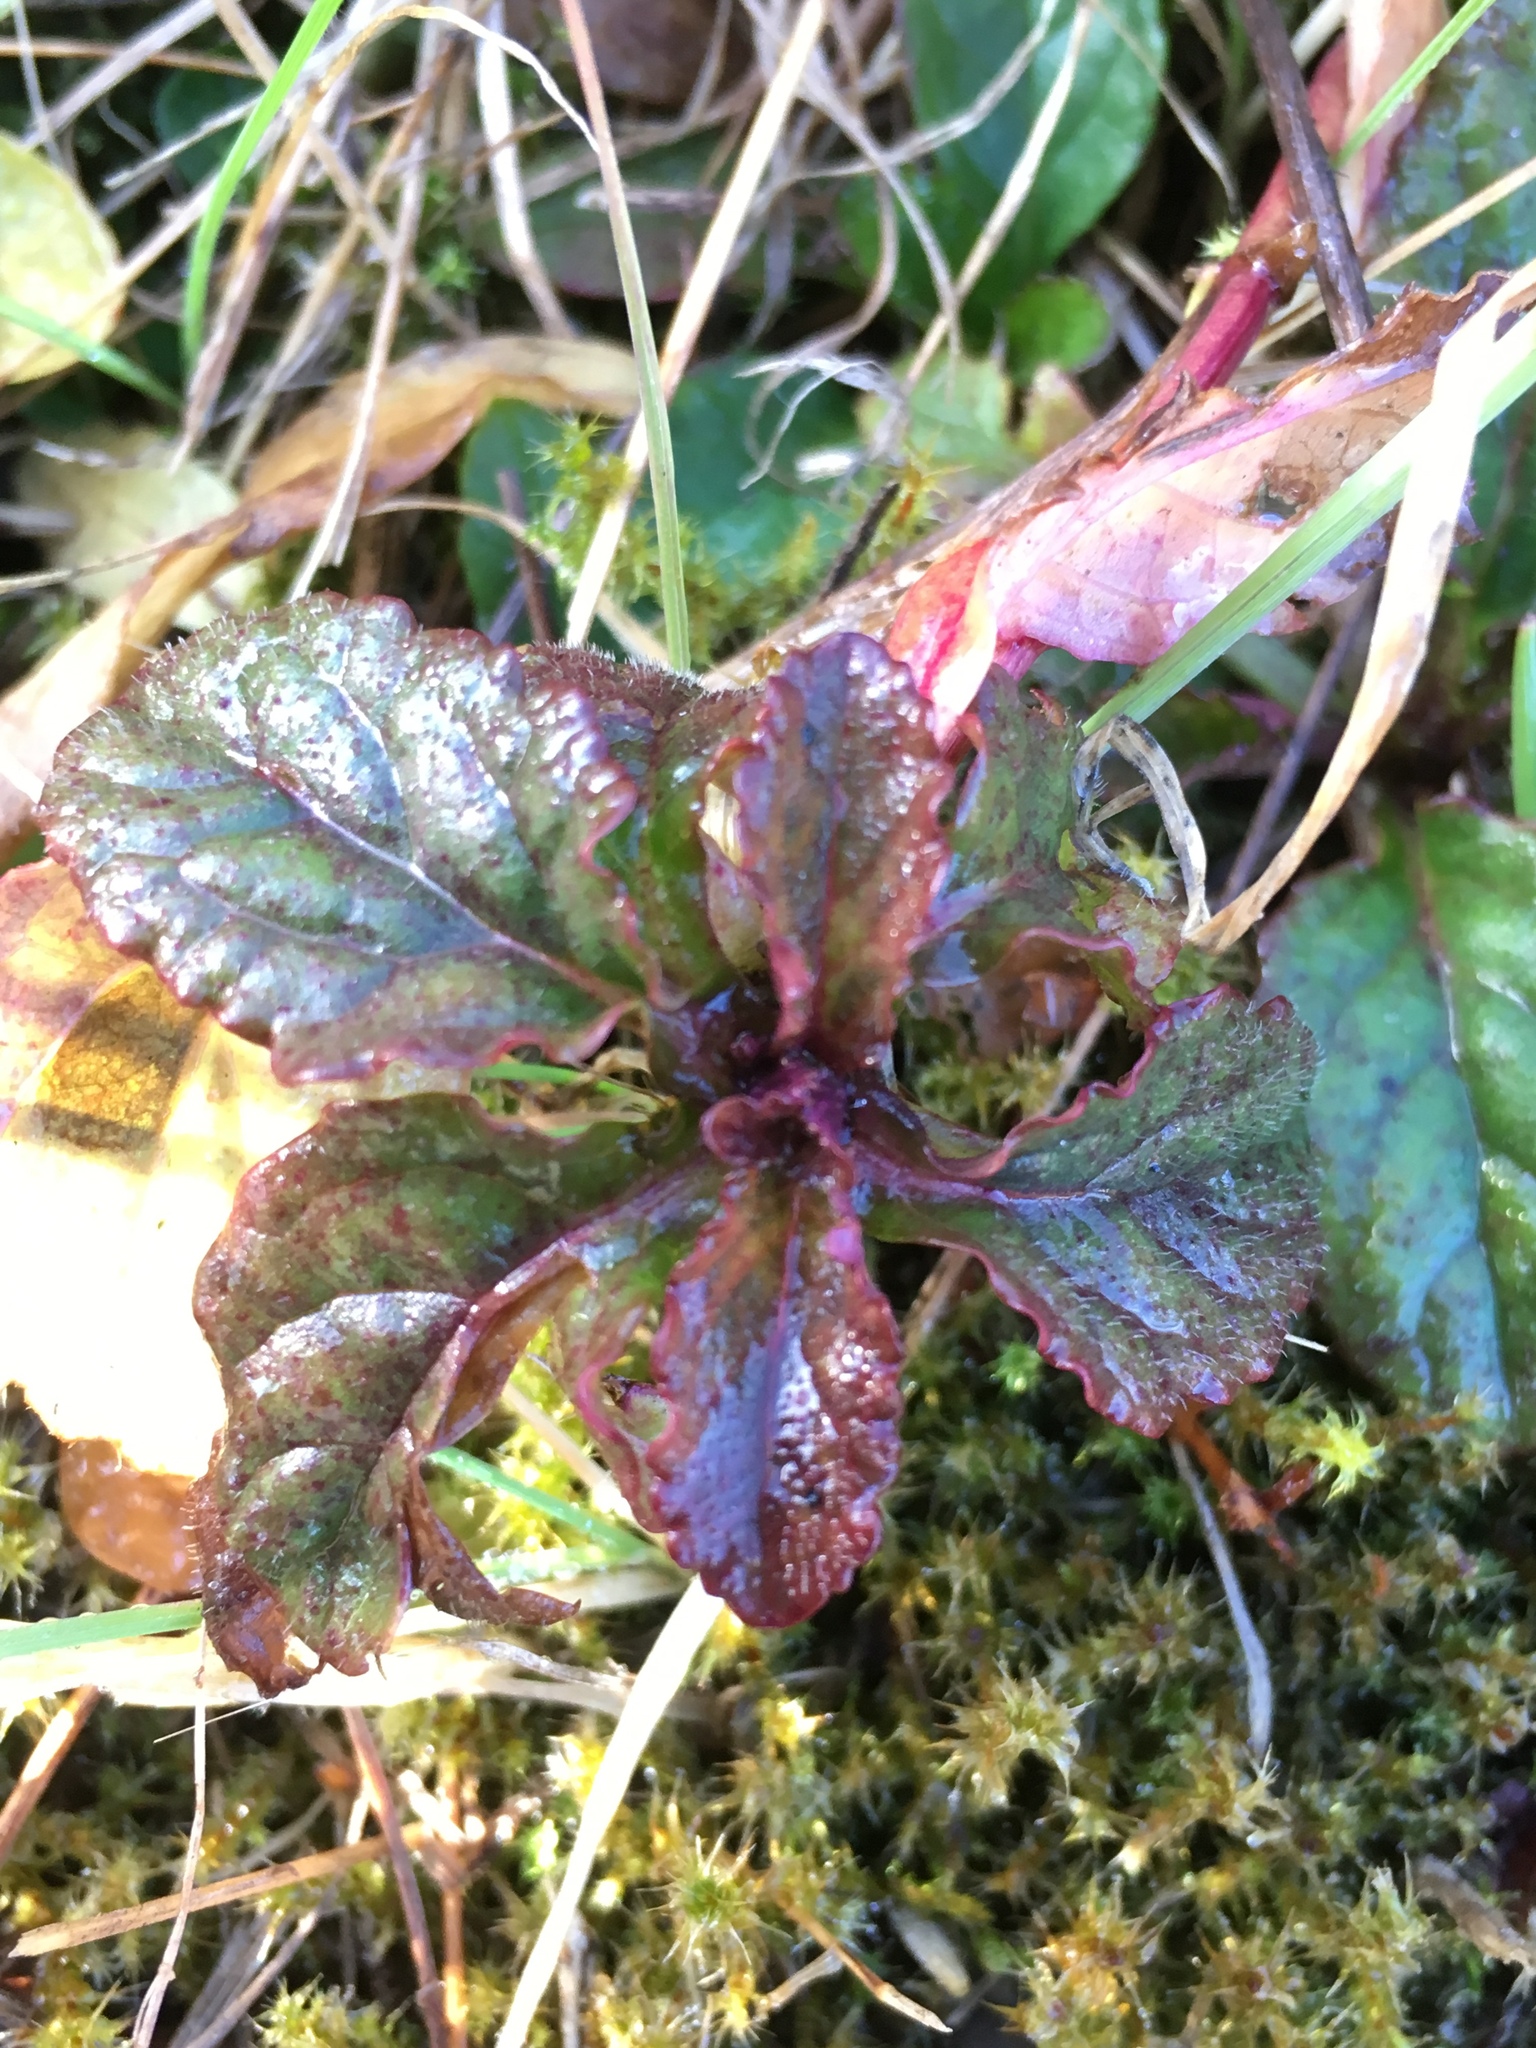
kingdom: Plantae
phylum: Tracheophyta
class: Magnoliopsida
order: Lamiales
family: Lamiaceae
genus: Ajuga
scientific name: Ajuga reptans
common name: Bugle
